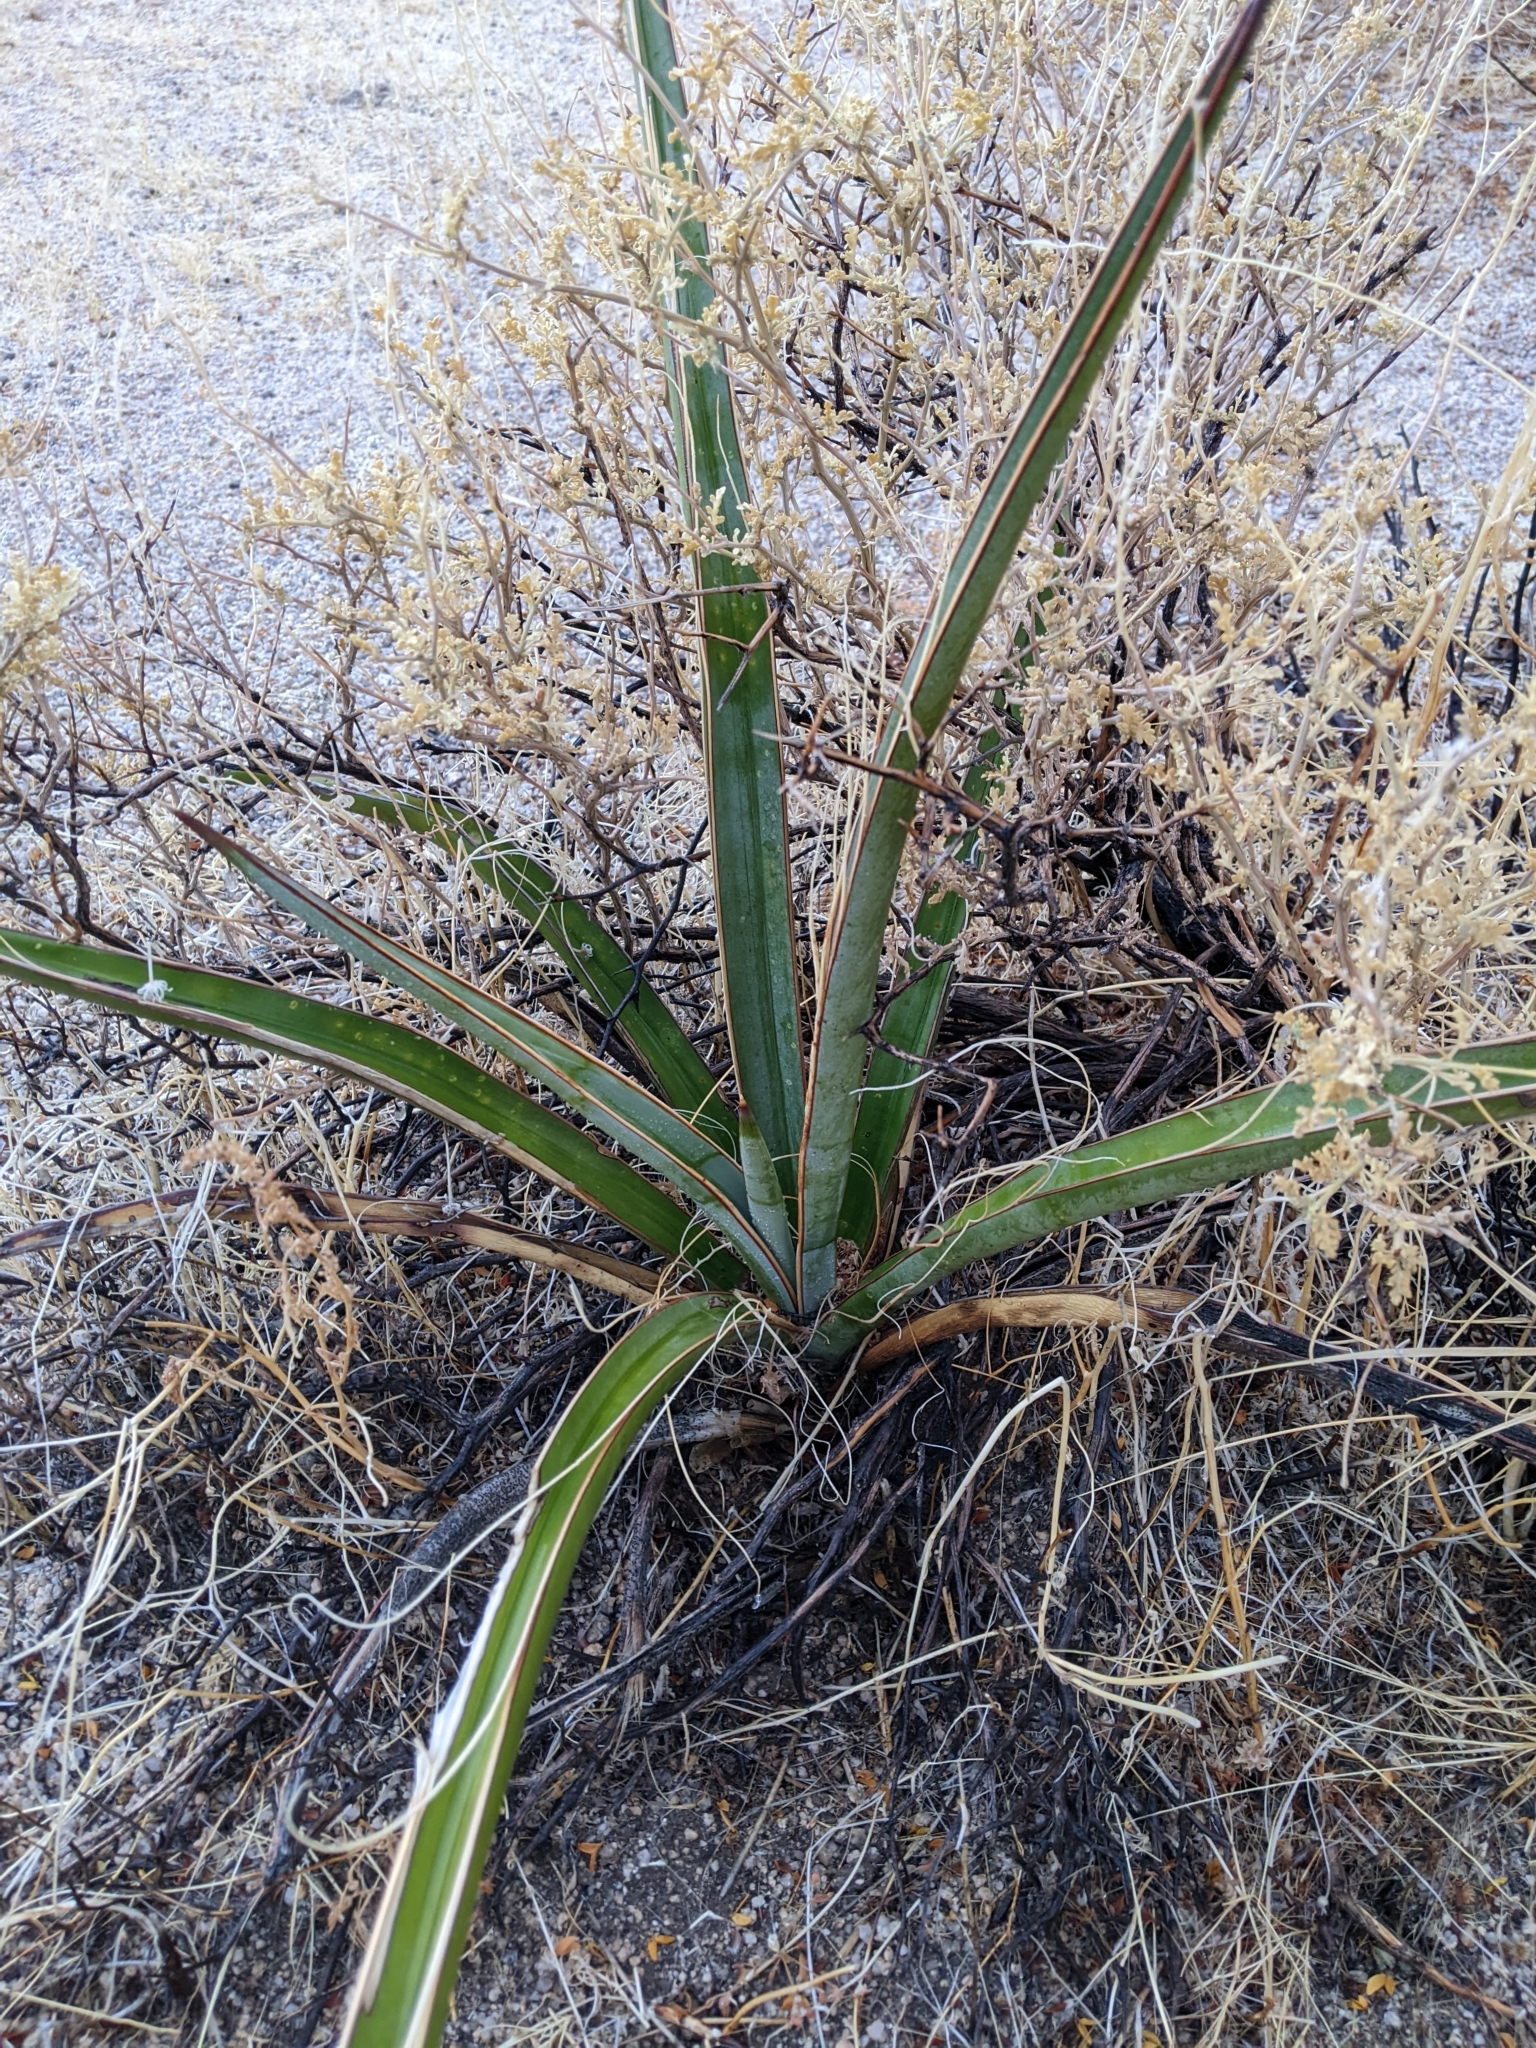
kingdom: Plantae
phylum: Tracheophyta
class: Liliopsida
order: Asparagales
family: Asparagaceae
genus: Yucca
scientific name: Yucca schidigera
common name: Mojave yucca
